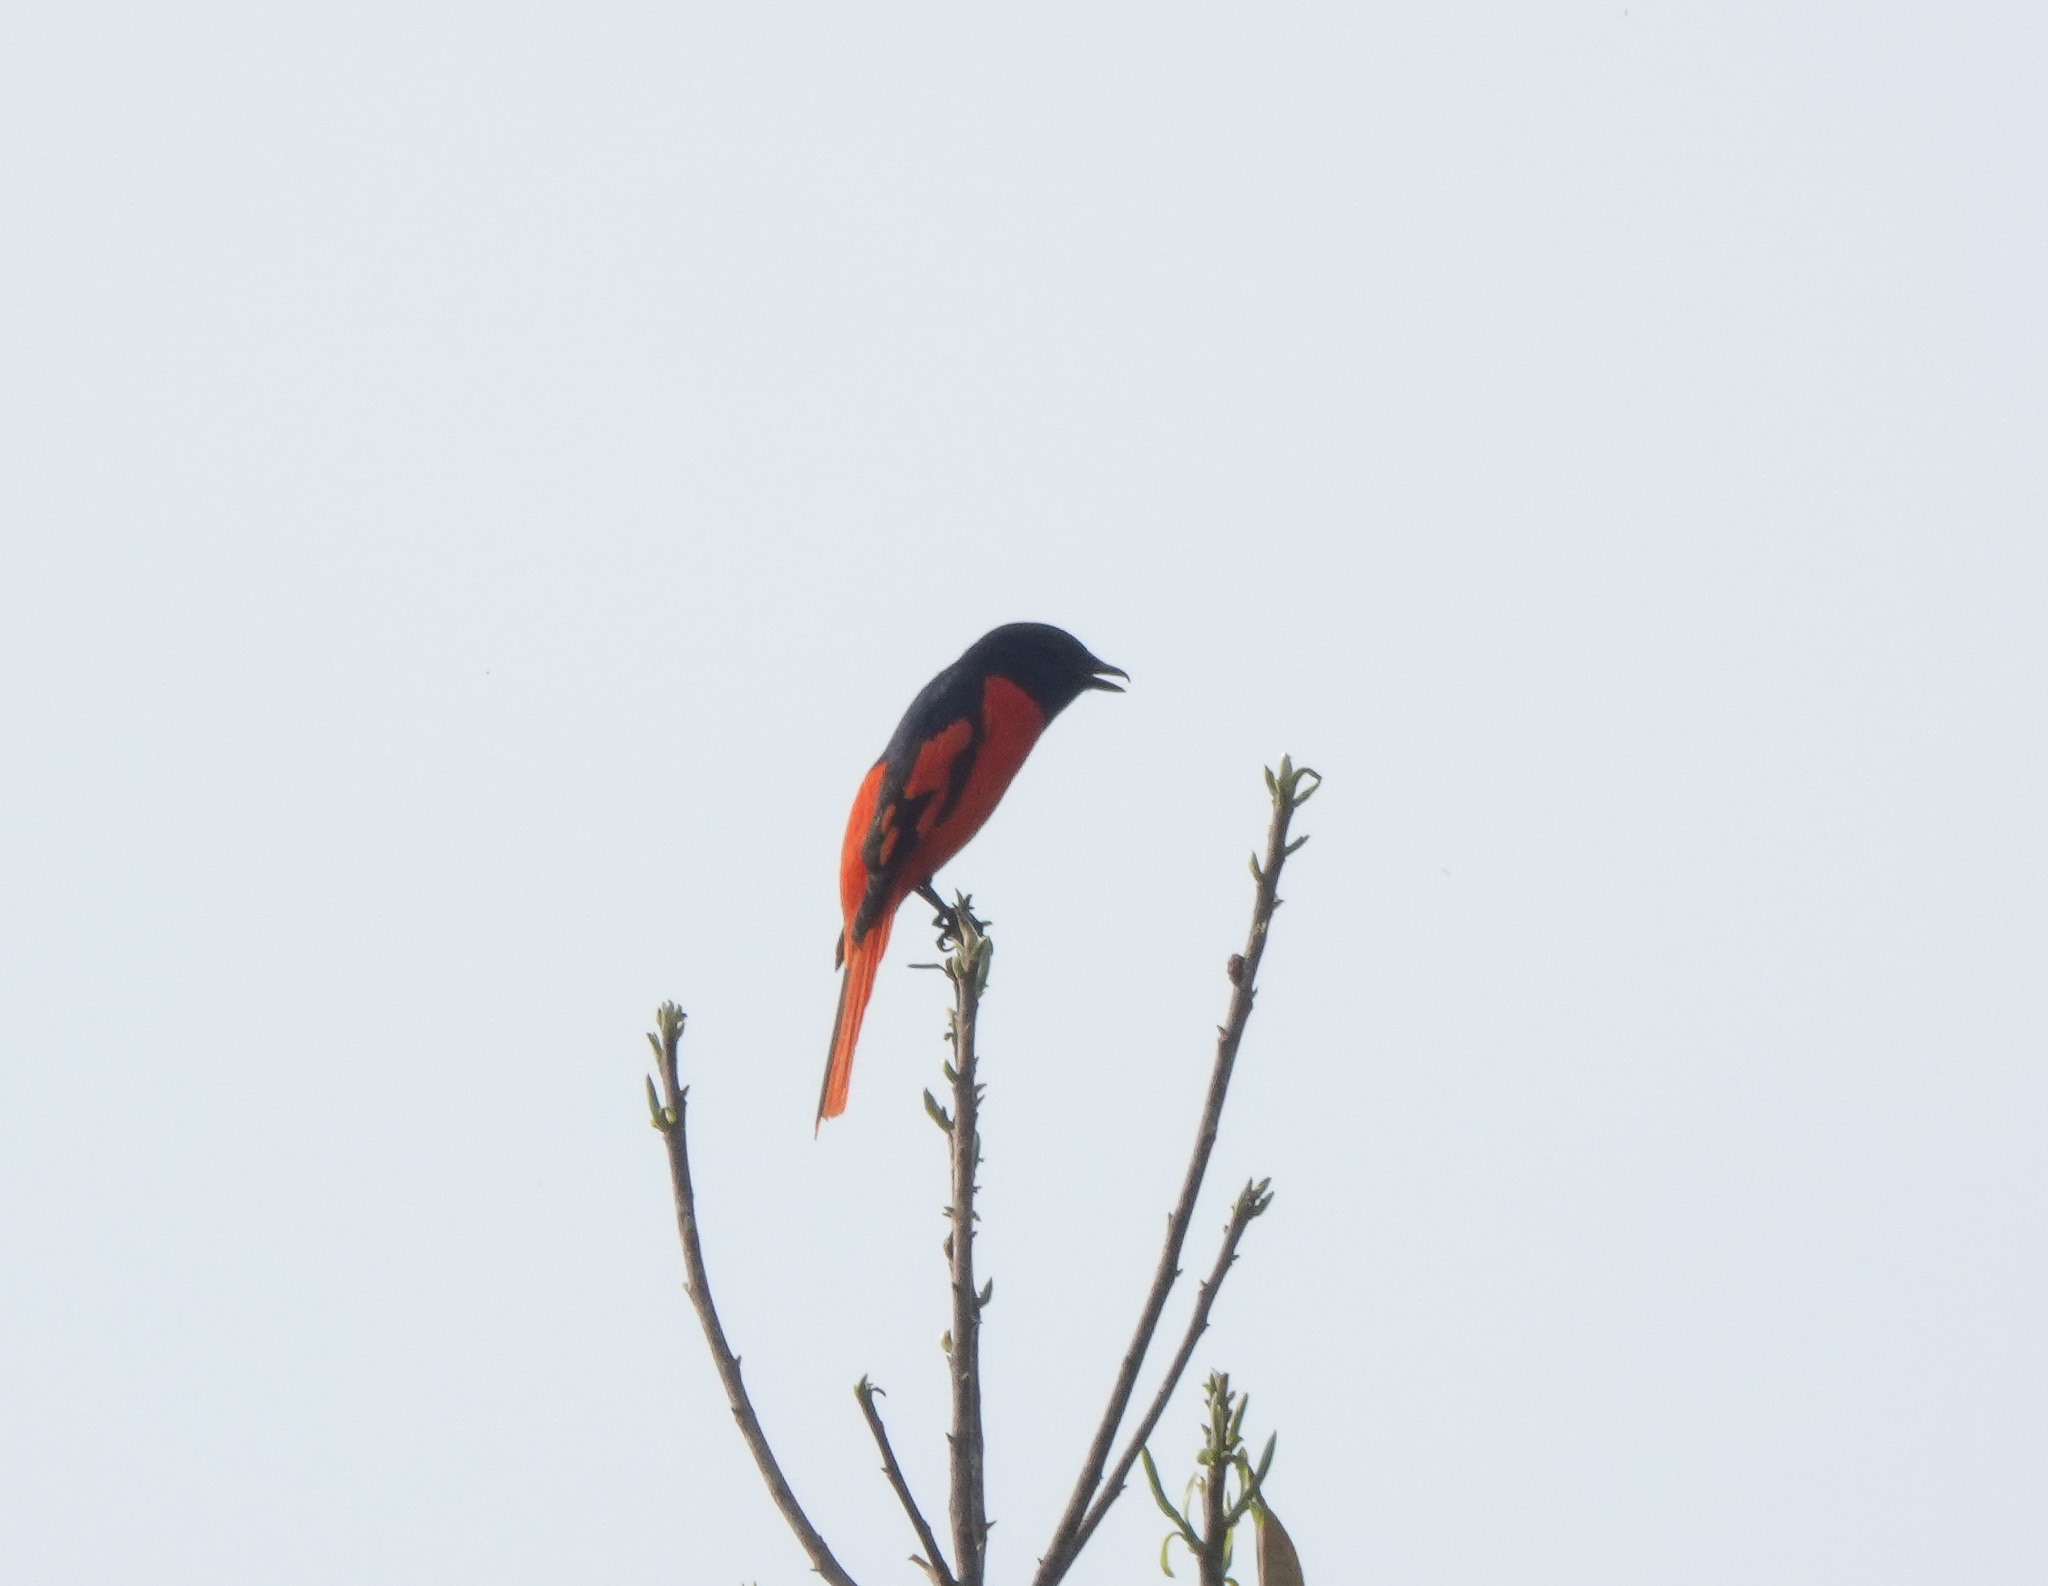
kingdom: Animalia
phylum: Chordata
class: Aves
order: Passeriformes
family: Campephagidae
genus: Pericrocotus
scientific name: Pericrocotus speciosus
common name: Scarlet minivet
